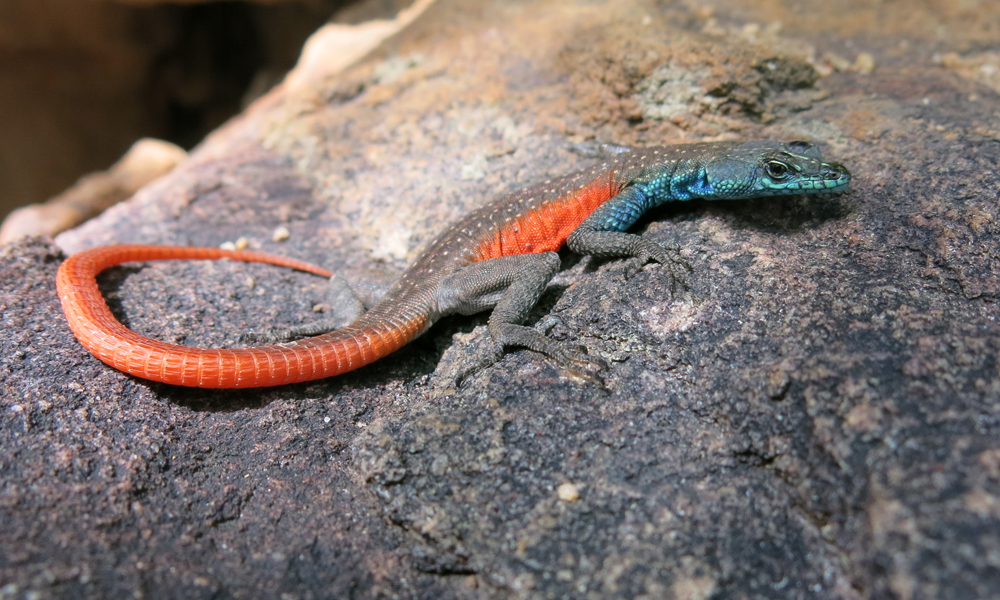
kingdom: Animalia
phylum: Chordata
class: Squamata
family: Cordylidae
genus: Platysaurus
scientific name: Platysaurus minor
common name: Waterberg flat lizard
